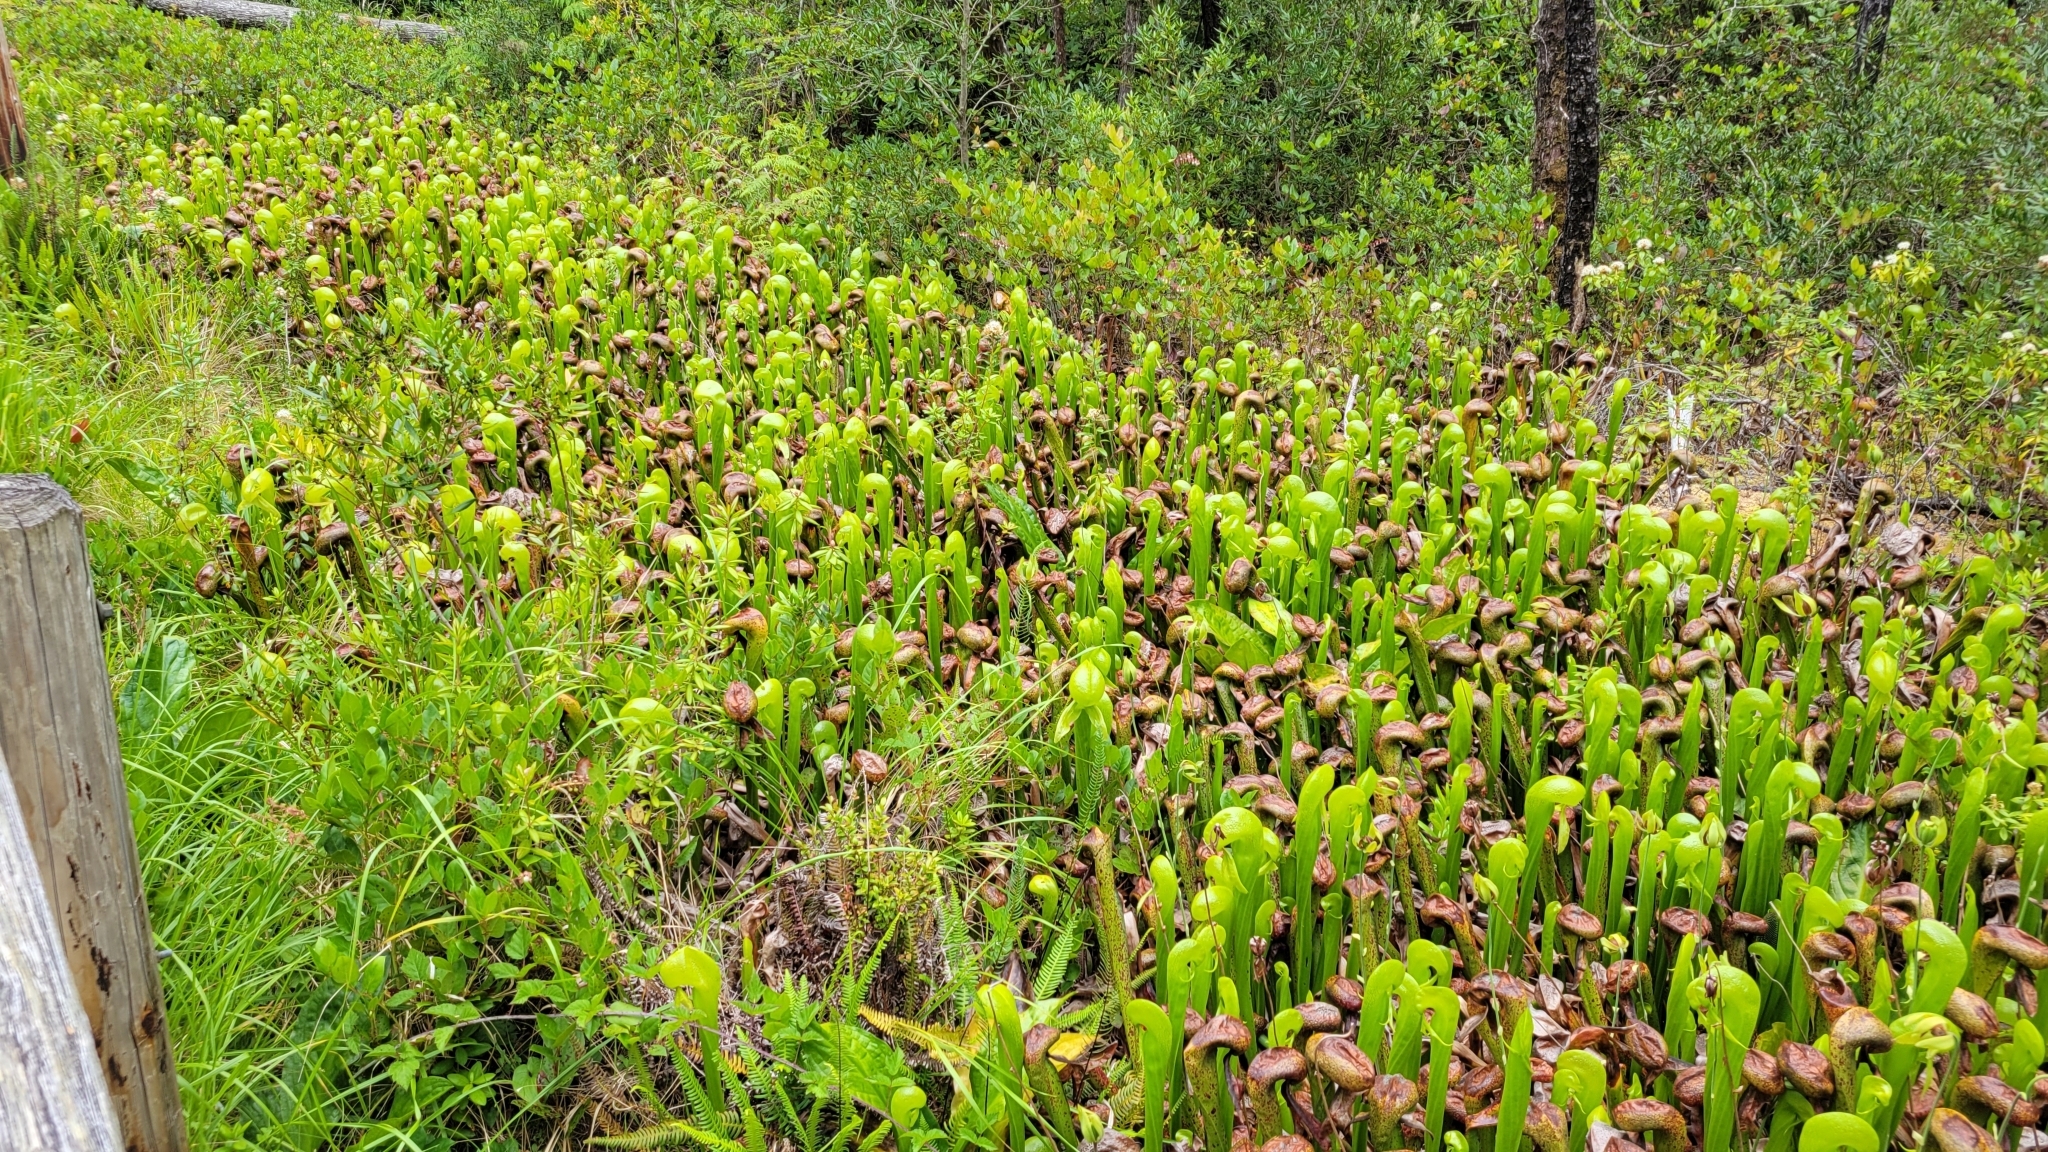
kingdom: Plantae
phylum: Tracheophyta
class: Magnoliopsida
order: Ericales
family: Sarraceniaceae
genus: Darlingtonia
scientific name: Darlingtonia californica
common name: California pitcher plant
